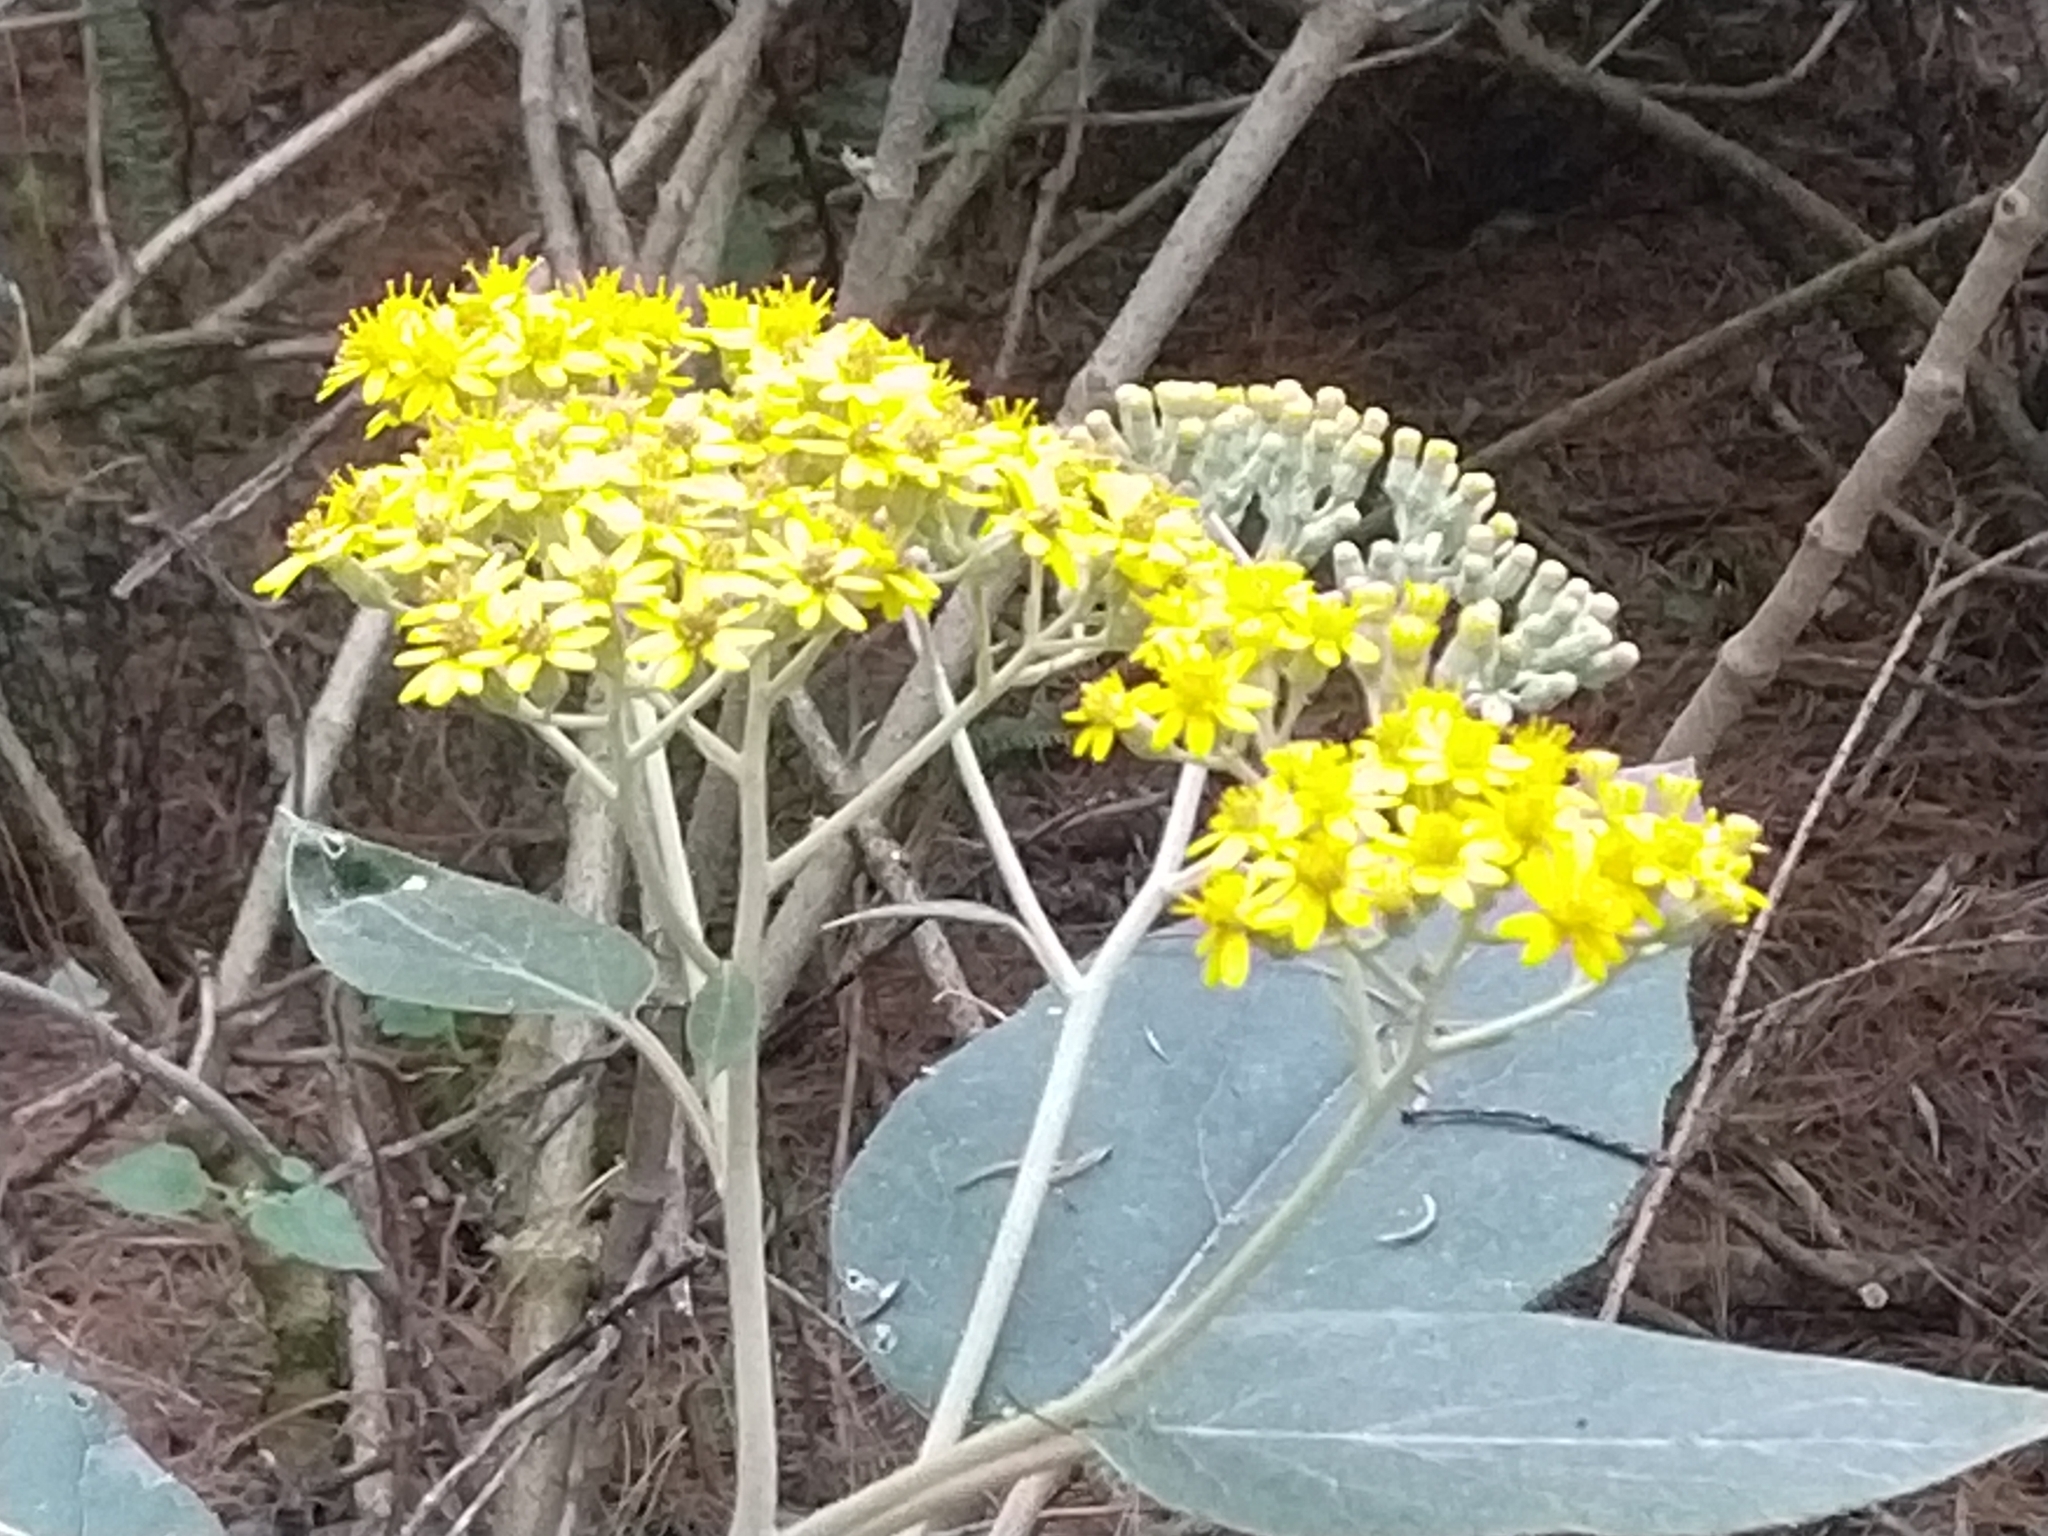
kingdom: Plantae
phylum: Tracheophyta
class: Magnoliopsida
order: Asterales
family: Asteraceae
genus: Roldana
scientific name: Roldana barba-johannis
